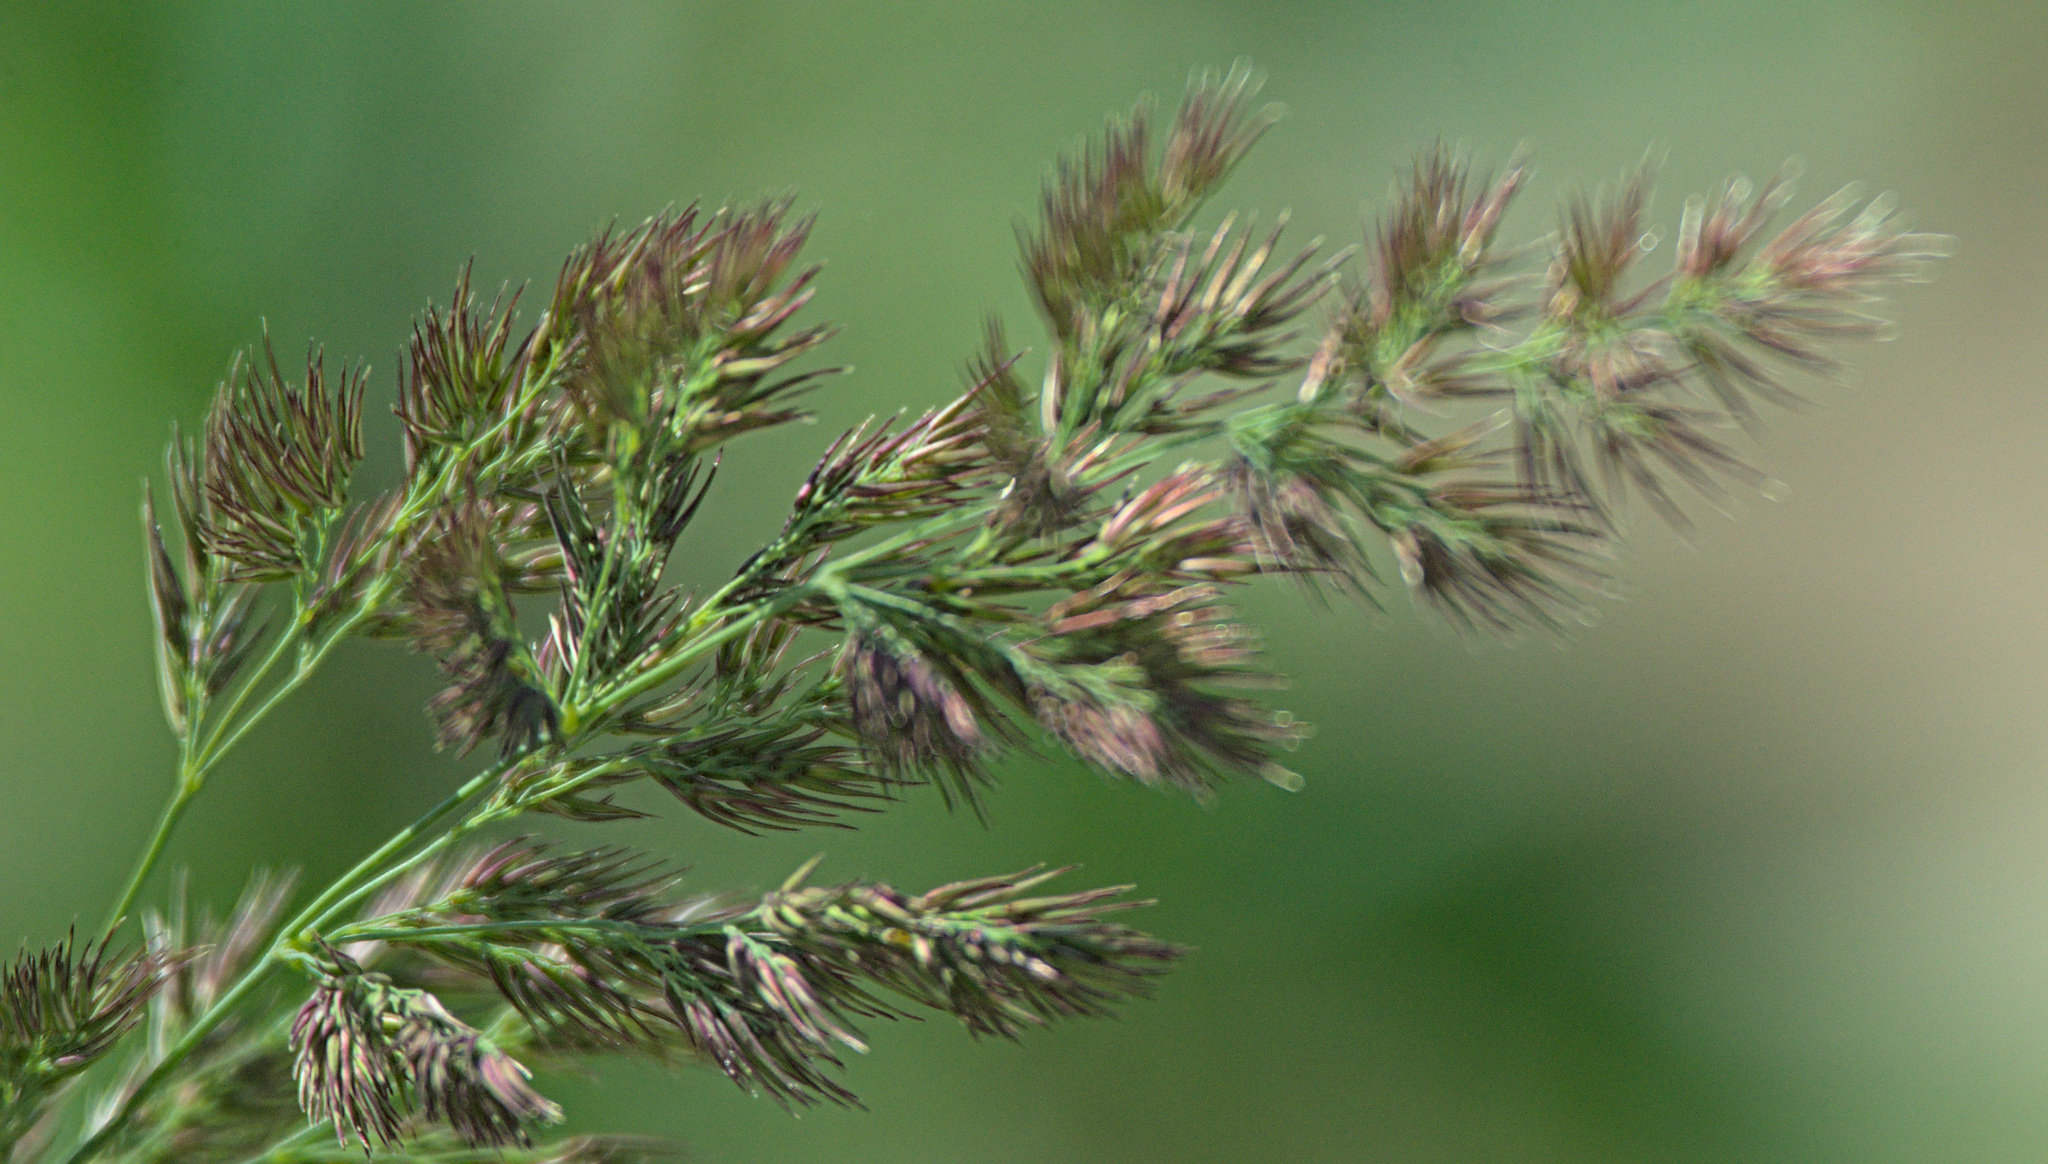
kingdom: Plantae
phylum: Tracheophyta
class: Liliopsida
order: Poales
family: Poaceae
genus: Calamagrostis
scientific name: Calamagrostis epigejos
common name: Wood small-reed
